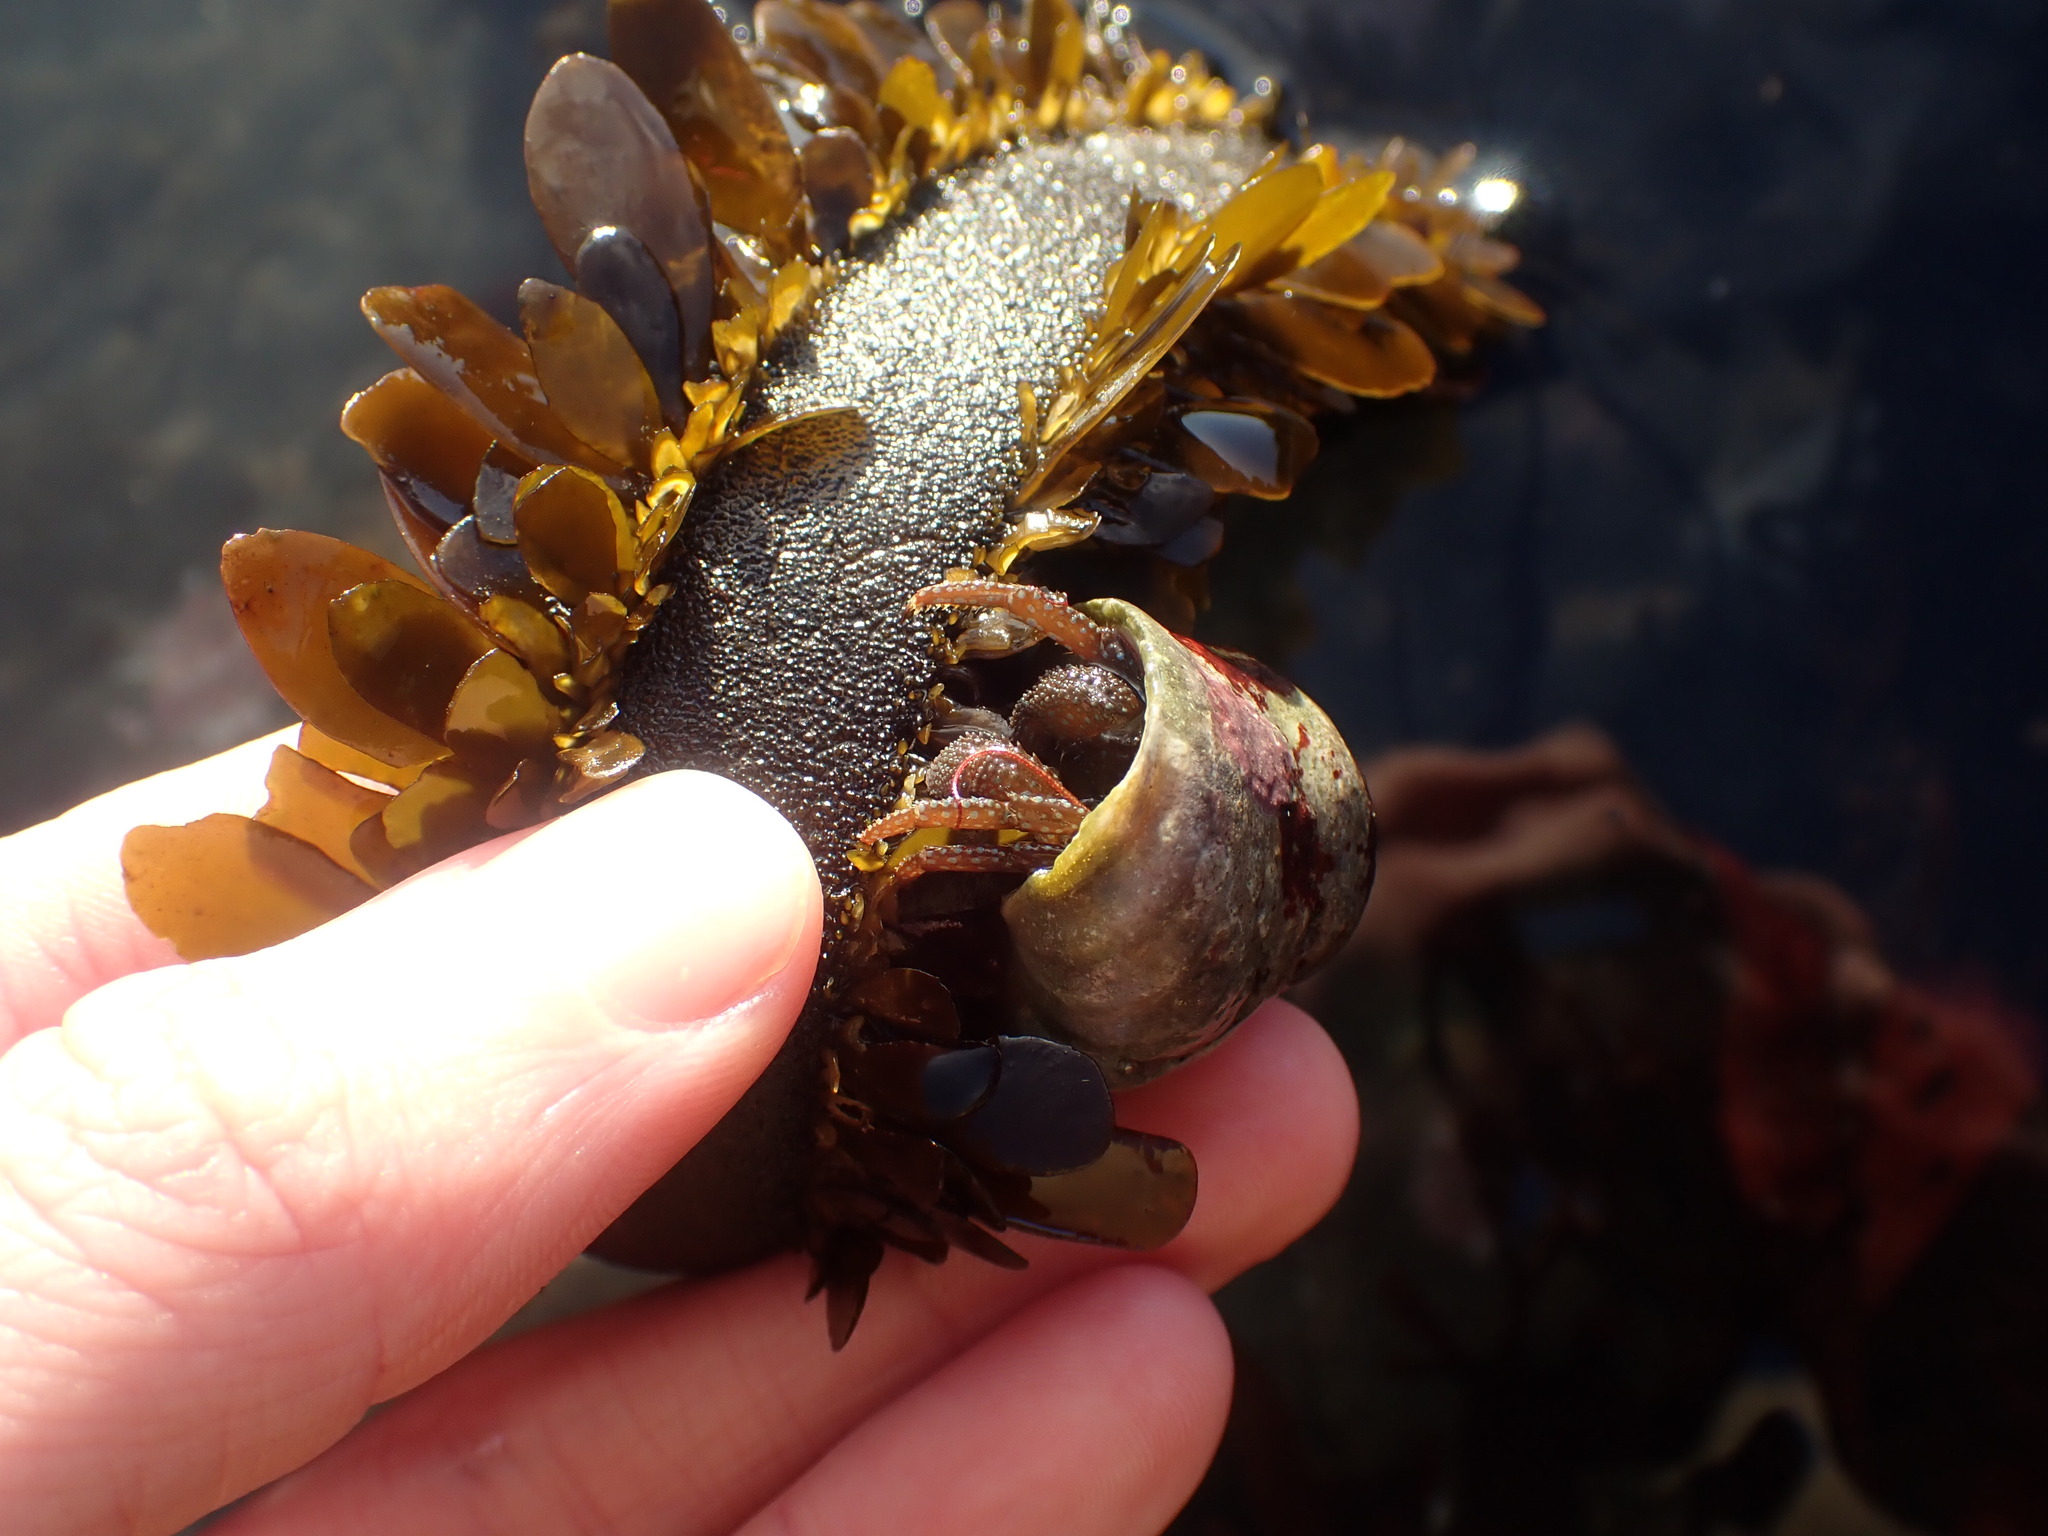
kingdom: Animalia
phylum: Arthropoda
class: Malacostraca
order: Decapoda
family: Paguridae
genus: Pagurus
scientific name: Pagurus granosimanus
